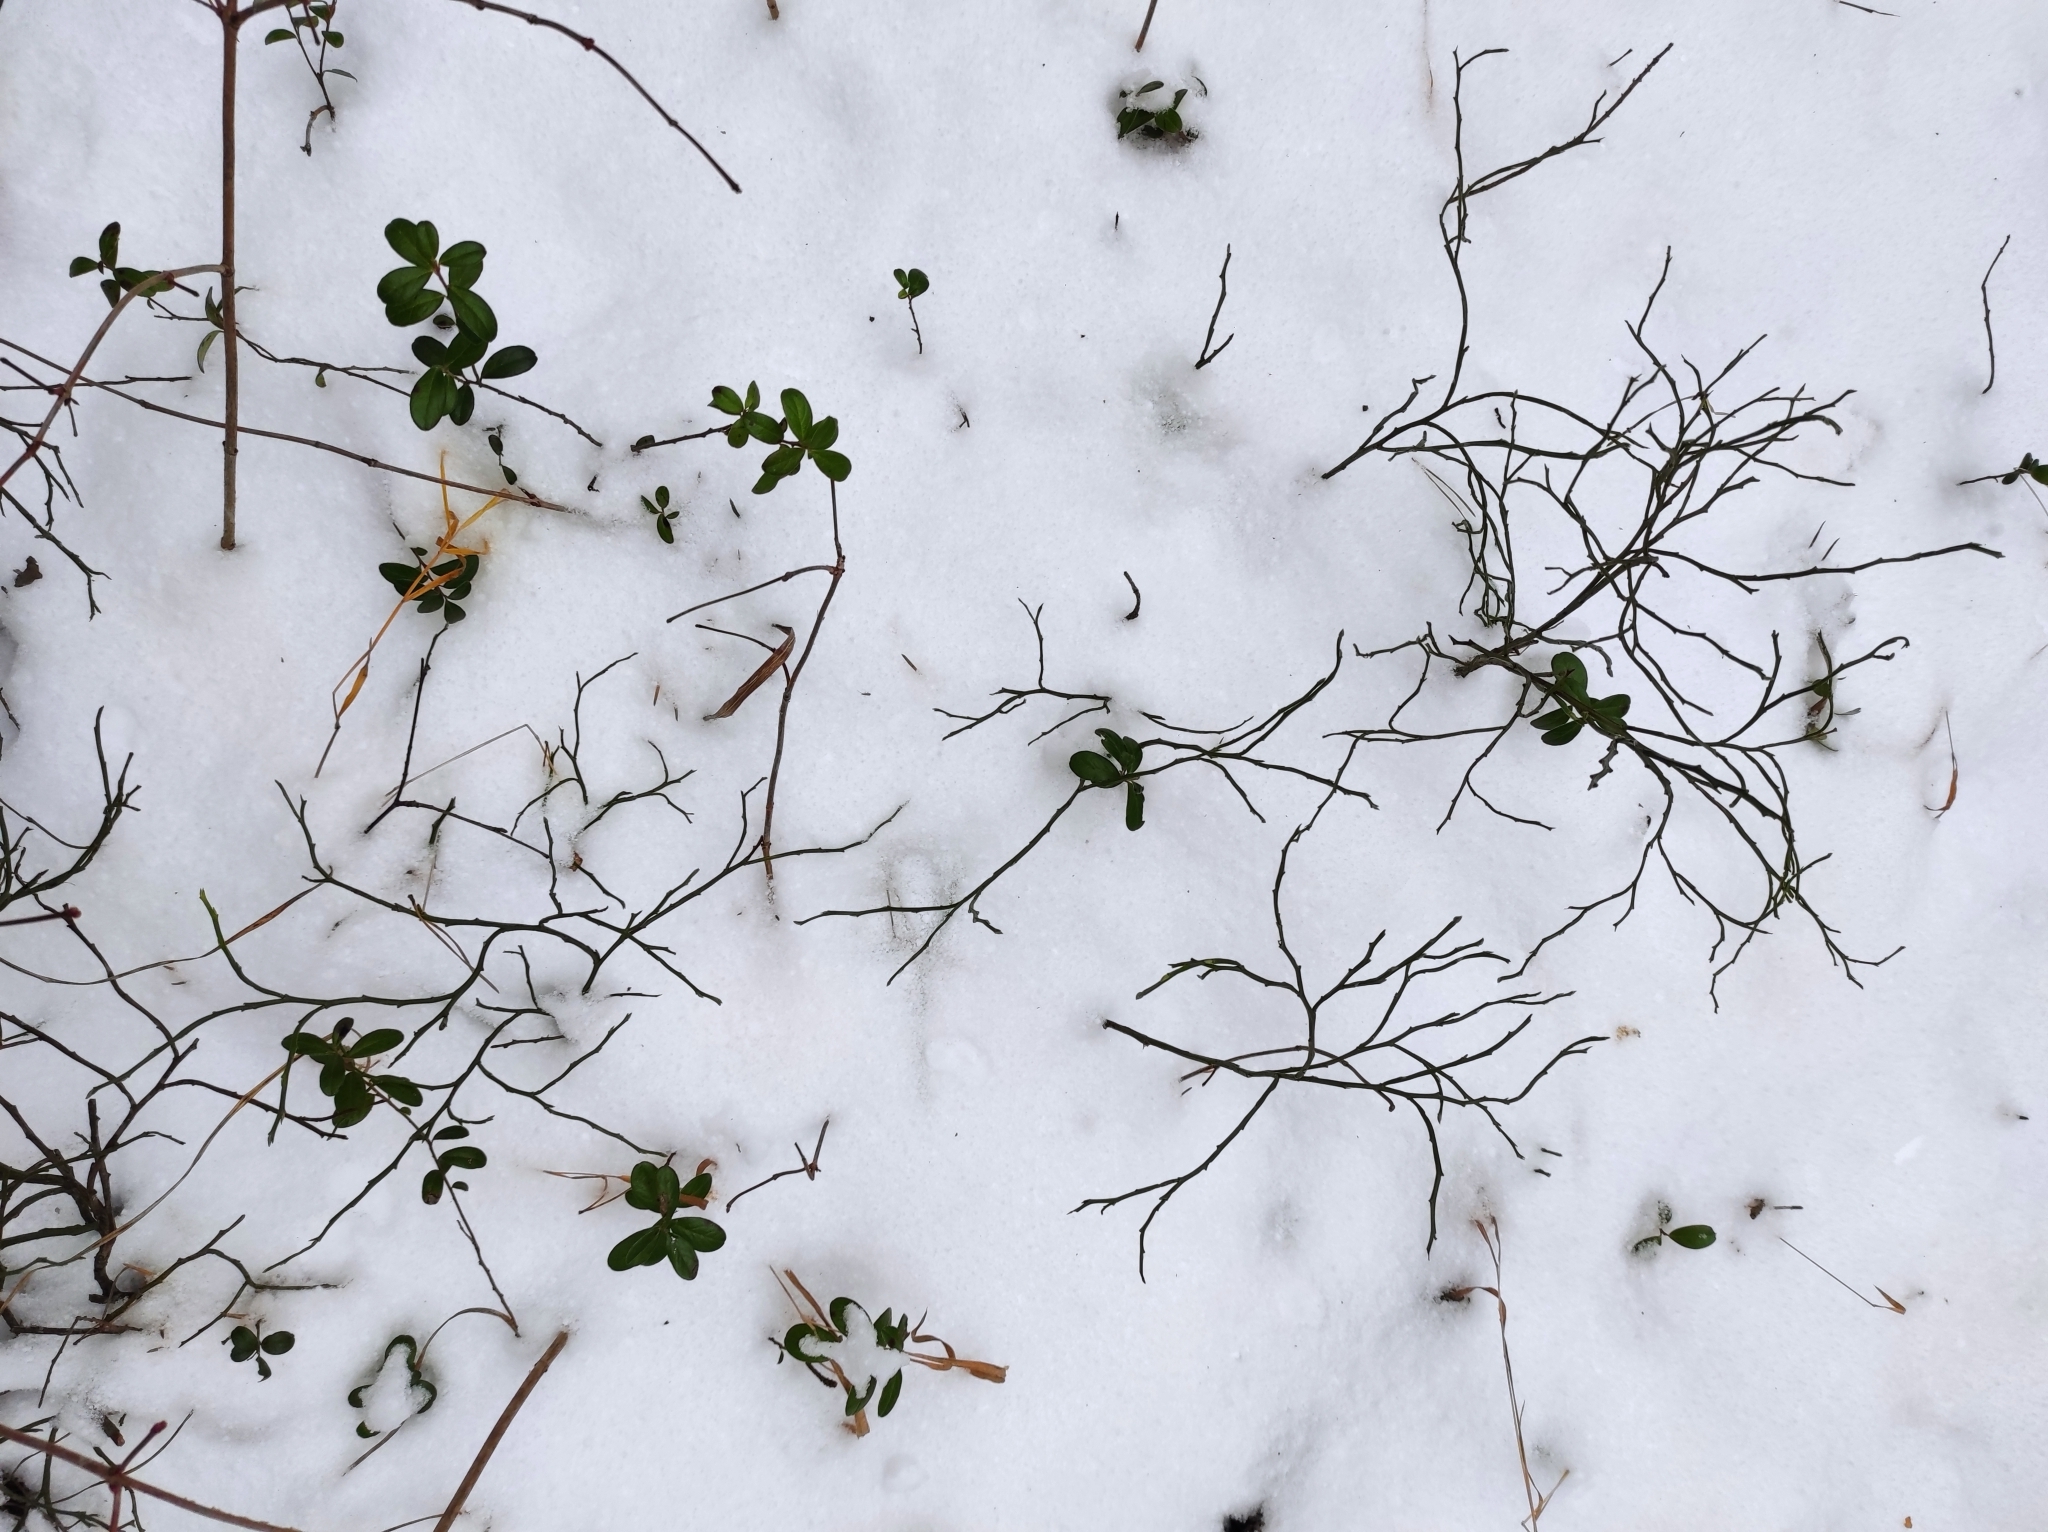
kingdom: Plantae
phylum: Tracheophyta
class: Magnoliopsida
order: Ericales
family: Ericaceae
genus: Vaccinium
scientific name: Vaccinium myrtillus
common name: Bilberry
